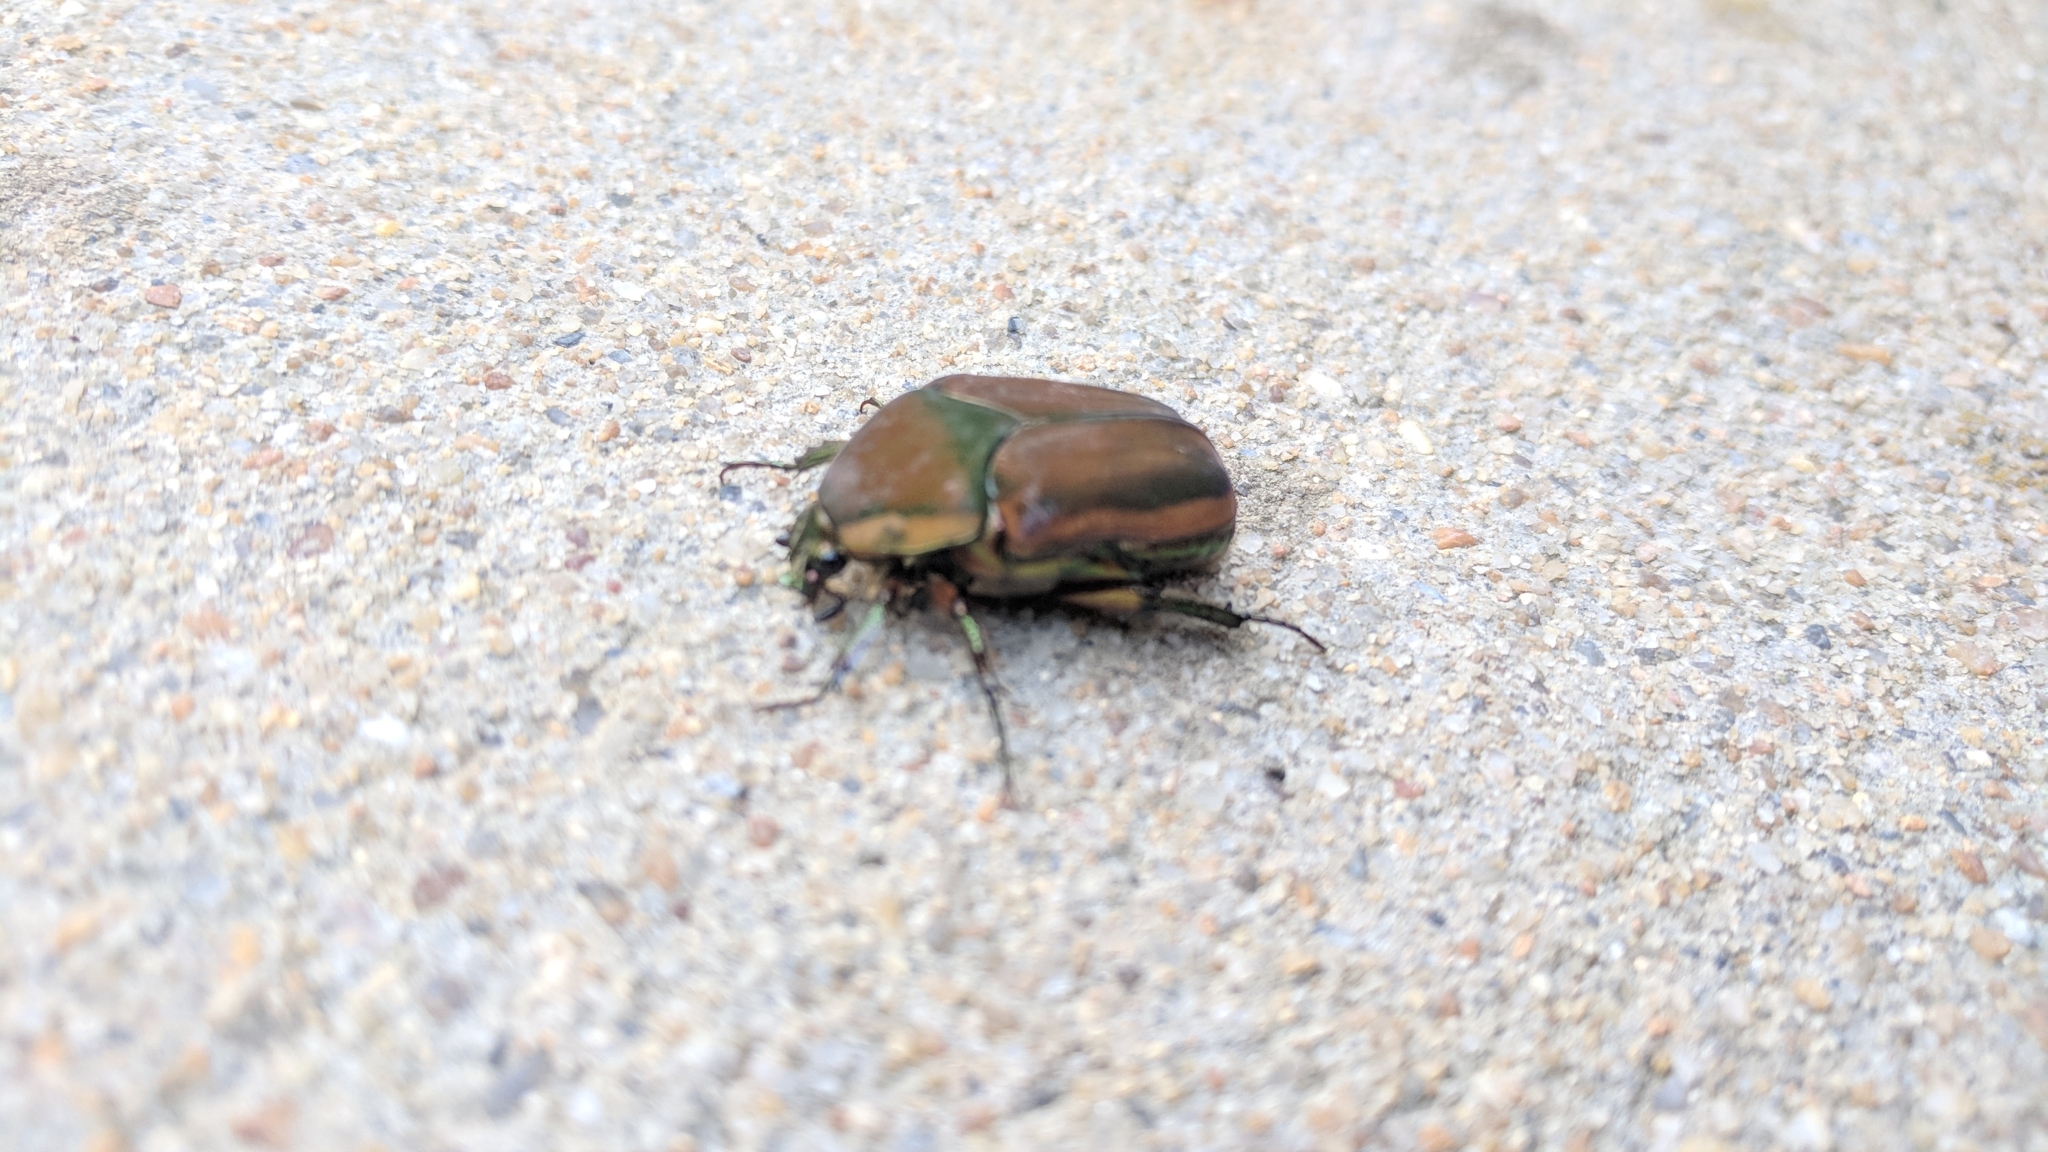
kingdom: Animalia
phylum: Arthropoda
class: Insecta
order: Coleoptera
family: Scarabaeidae
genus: Cotinis
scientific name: Cotinis nitida
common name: Common green june beetle
